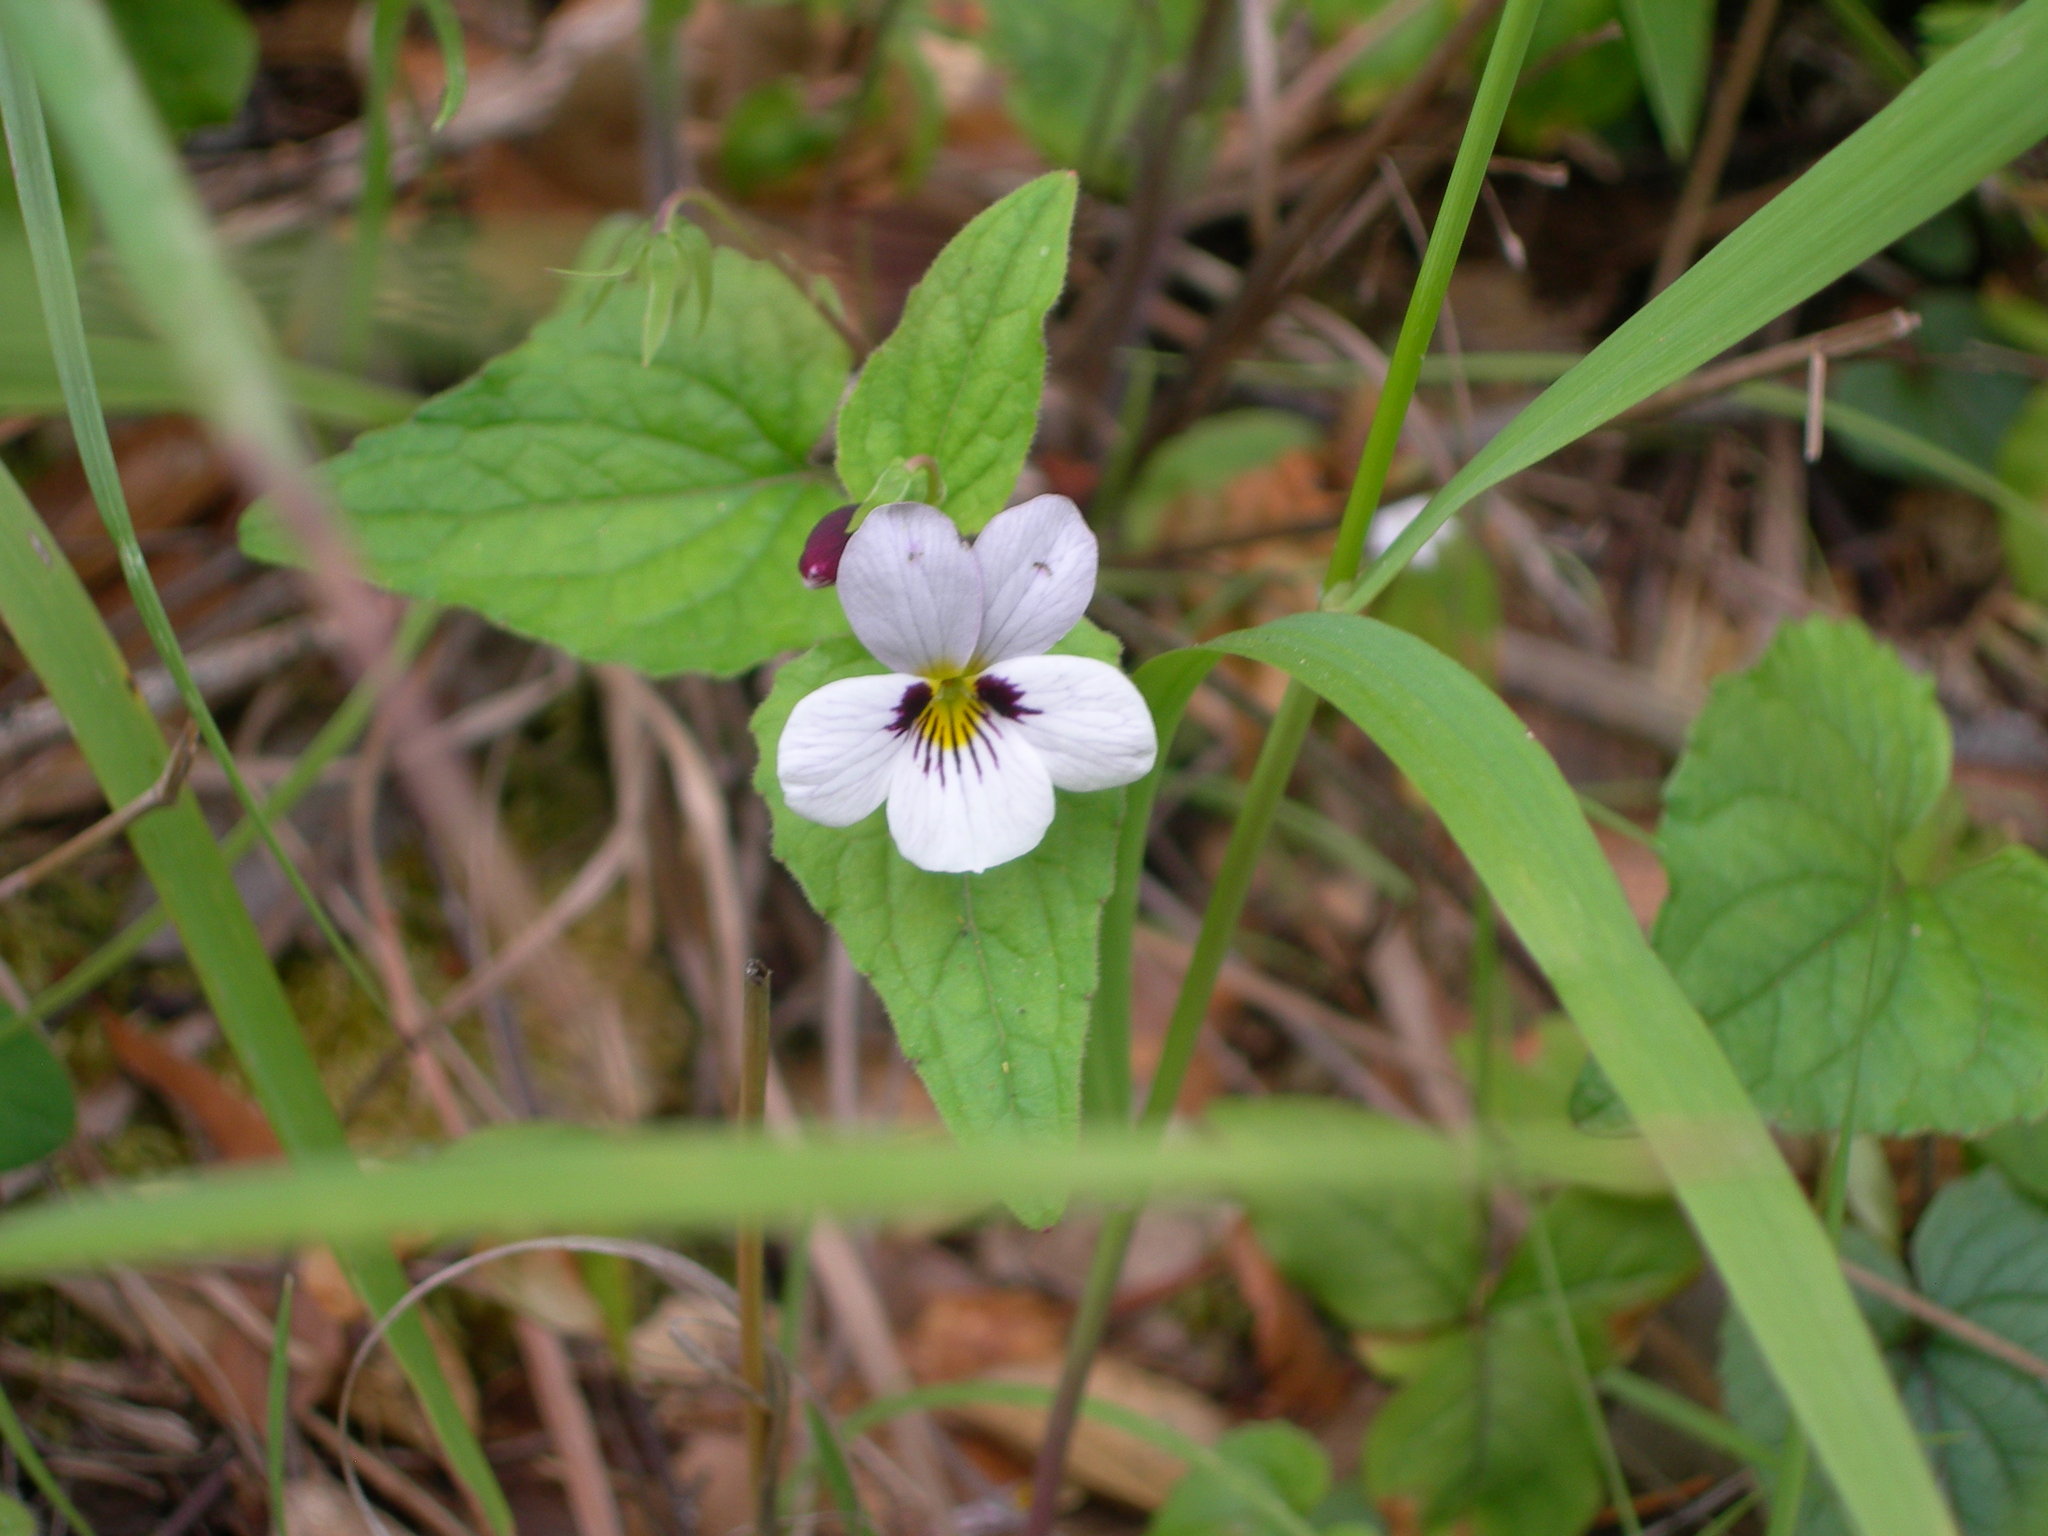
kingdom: Plantae
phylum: Tracheophyta
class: Magnoliopsida
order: Malpighiales
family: Violaceae
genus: Viola
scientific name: Viola ocellata
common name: Western heart's ease
